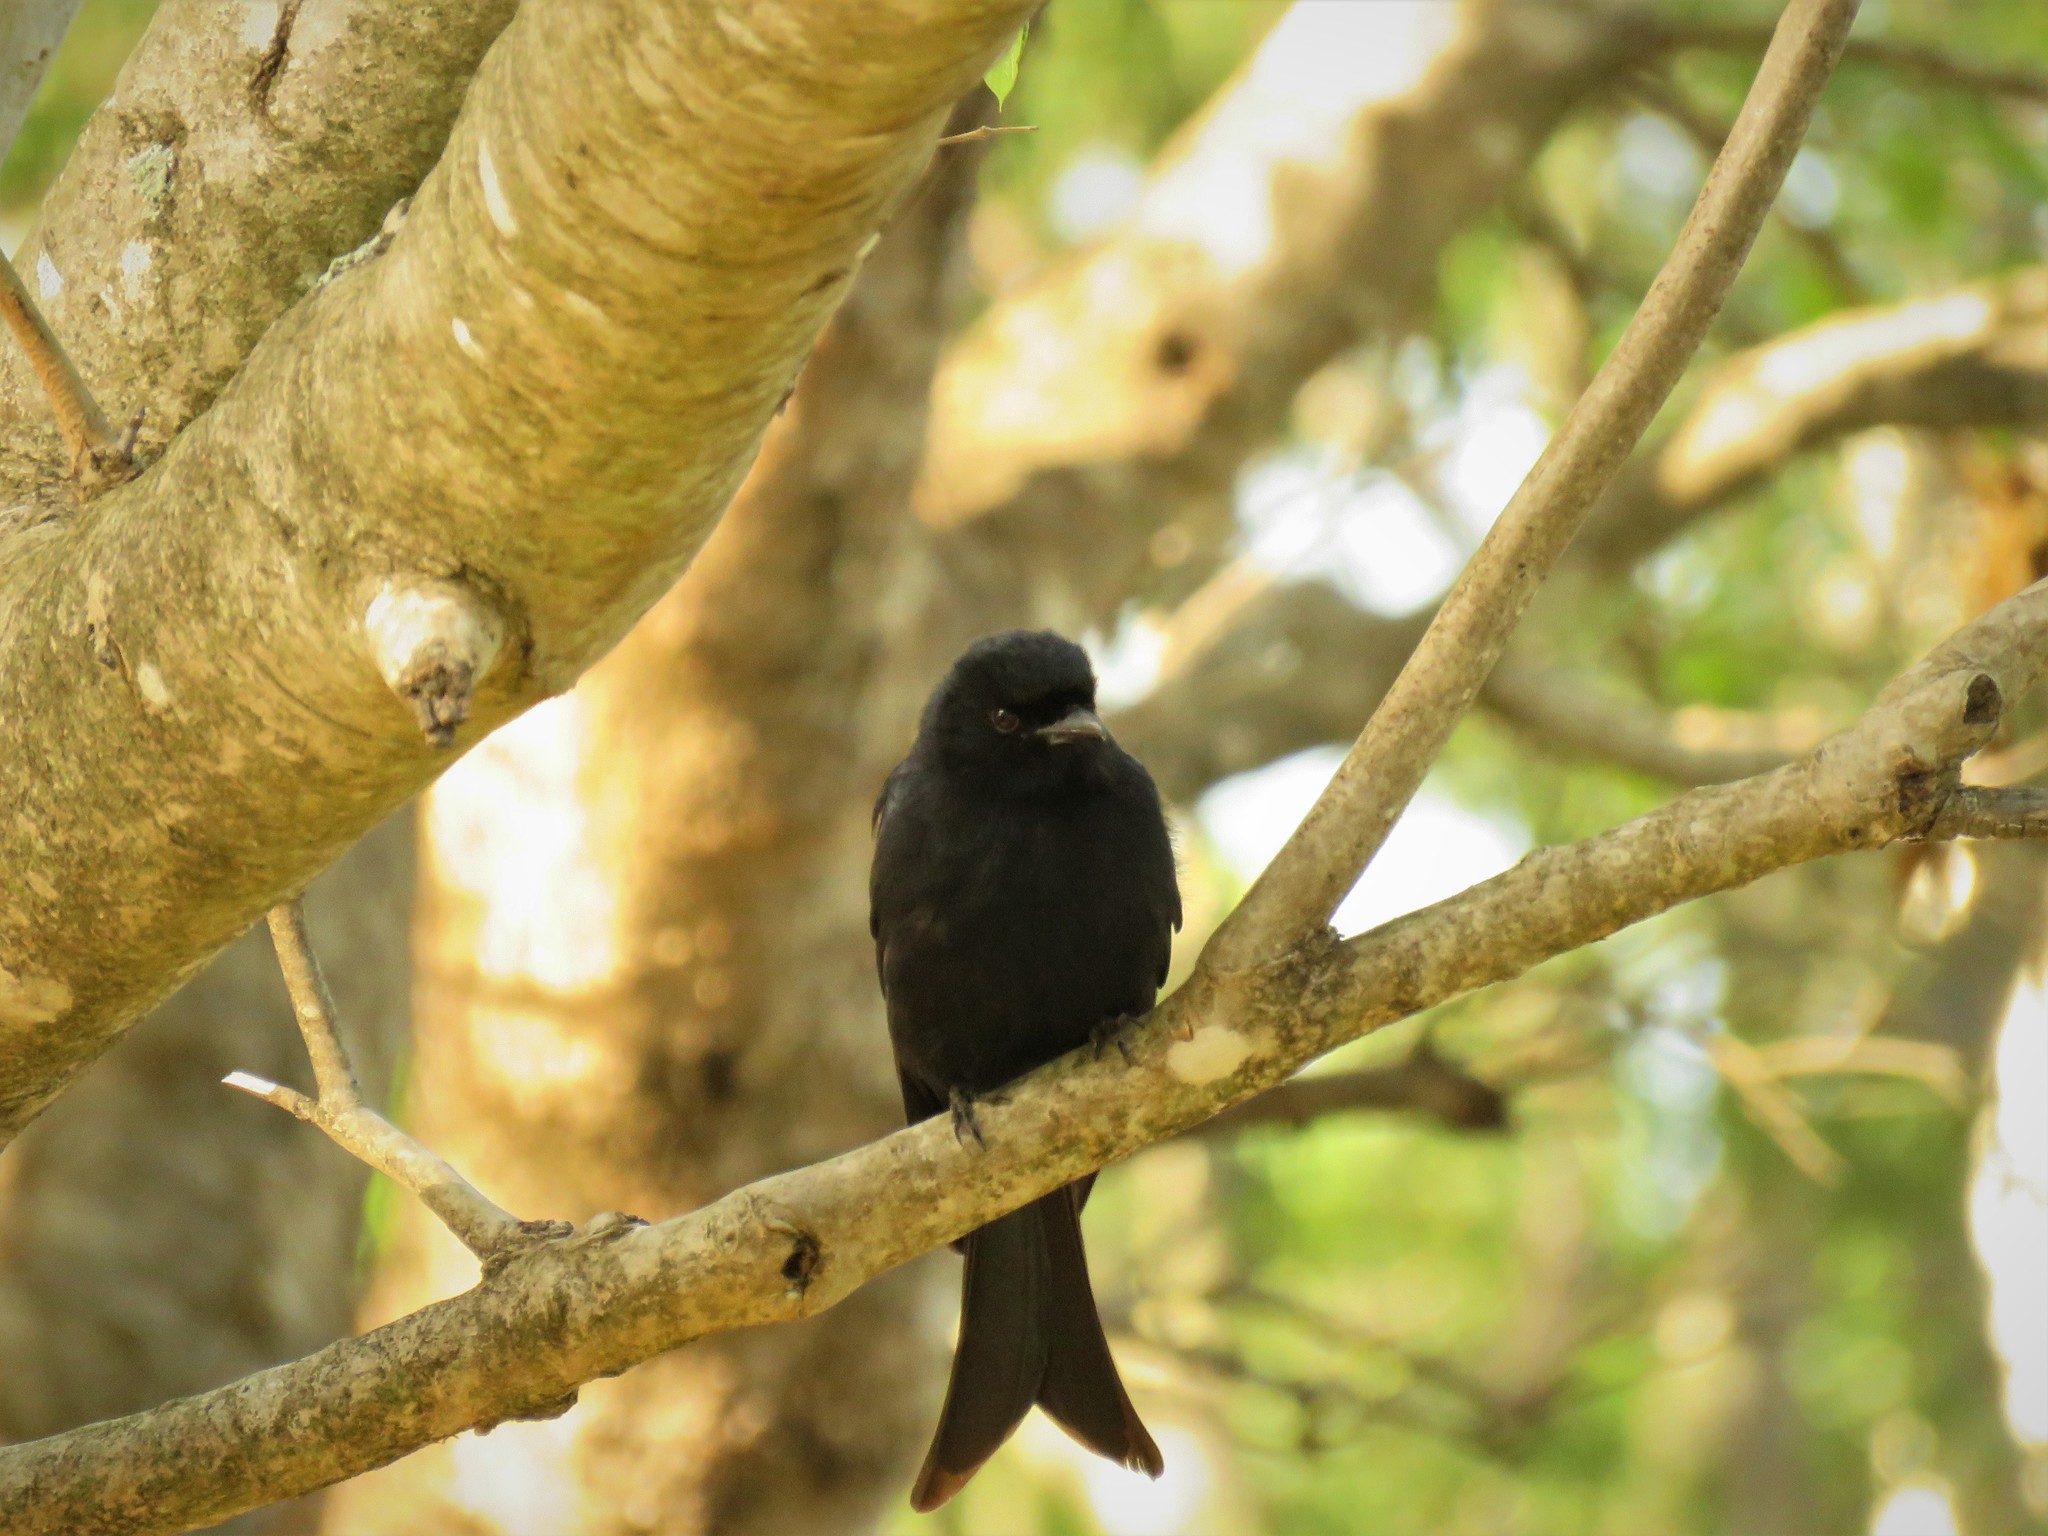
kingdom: Animalia
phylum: Chordata
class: Aves
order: Passeriformes
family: Dicruridae
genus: Dicrurus
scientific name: Dicrurus adsimilis
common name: Fork-tailed drongo
